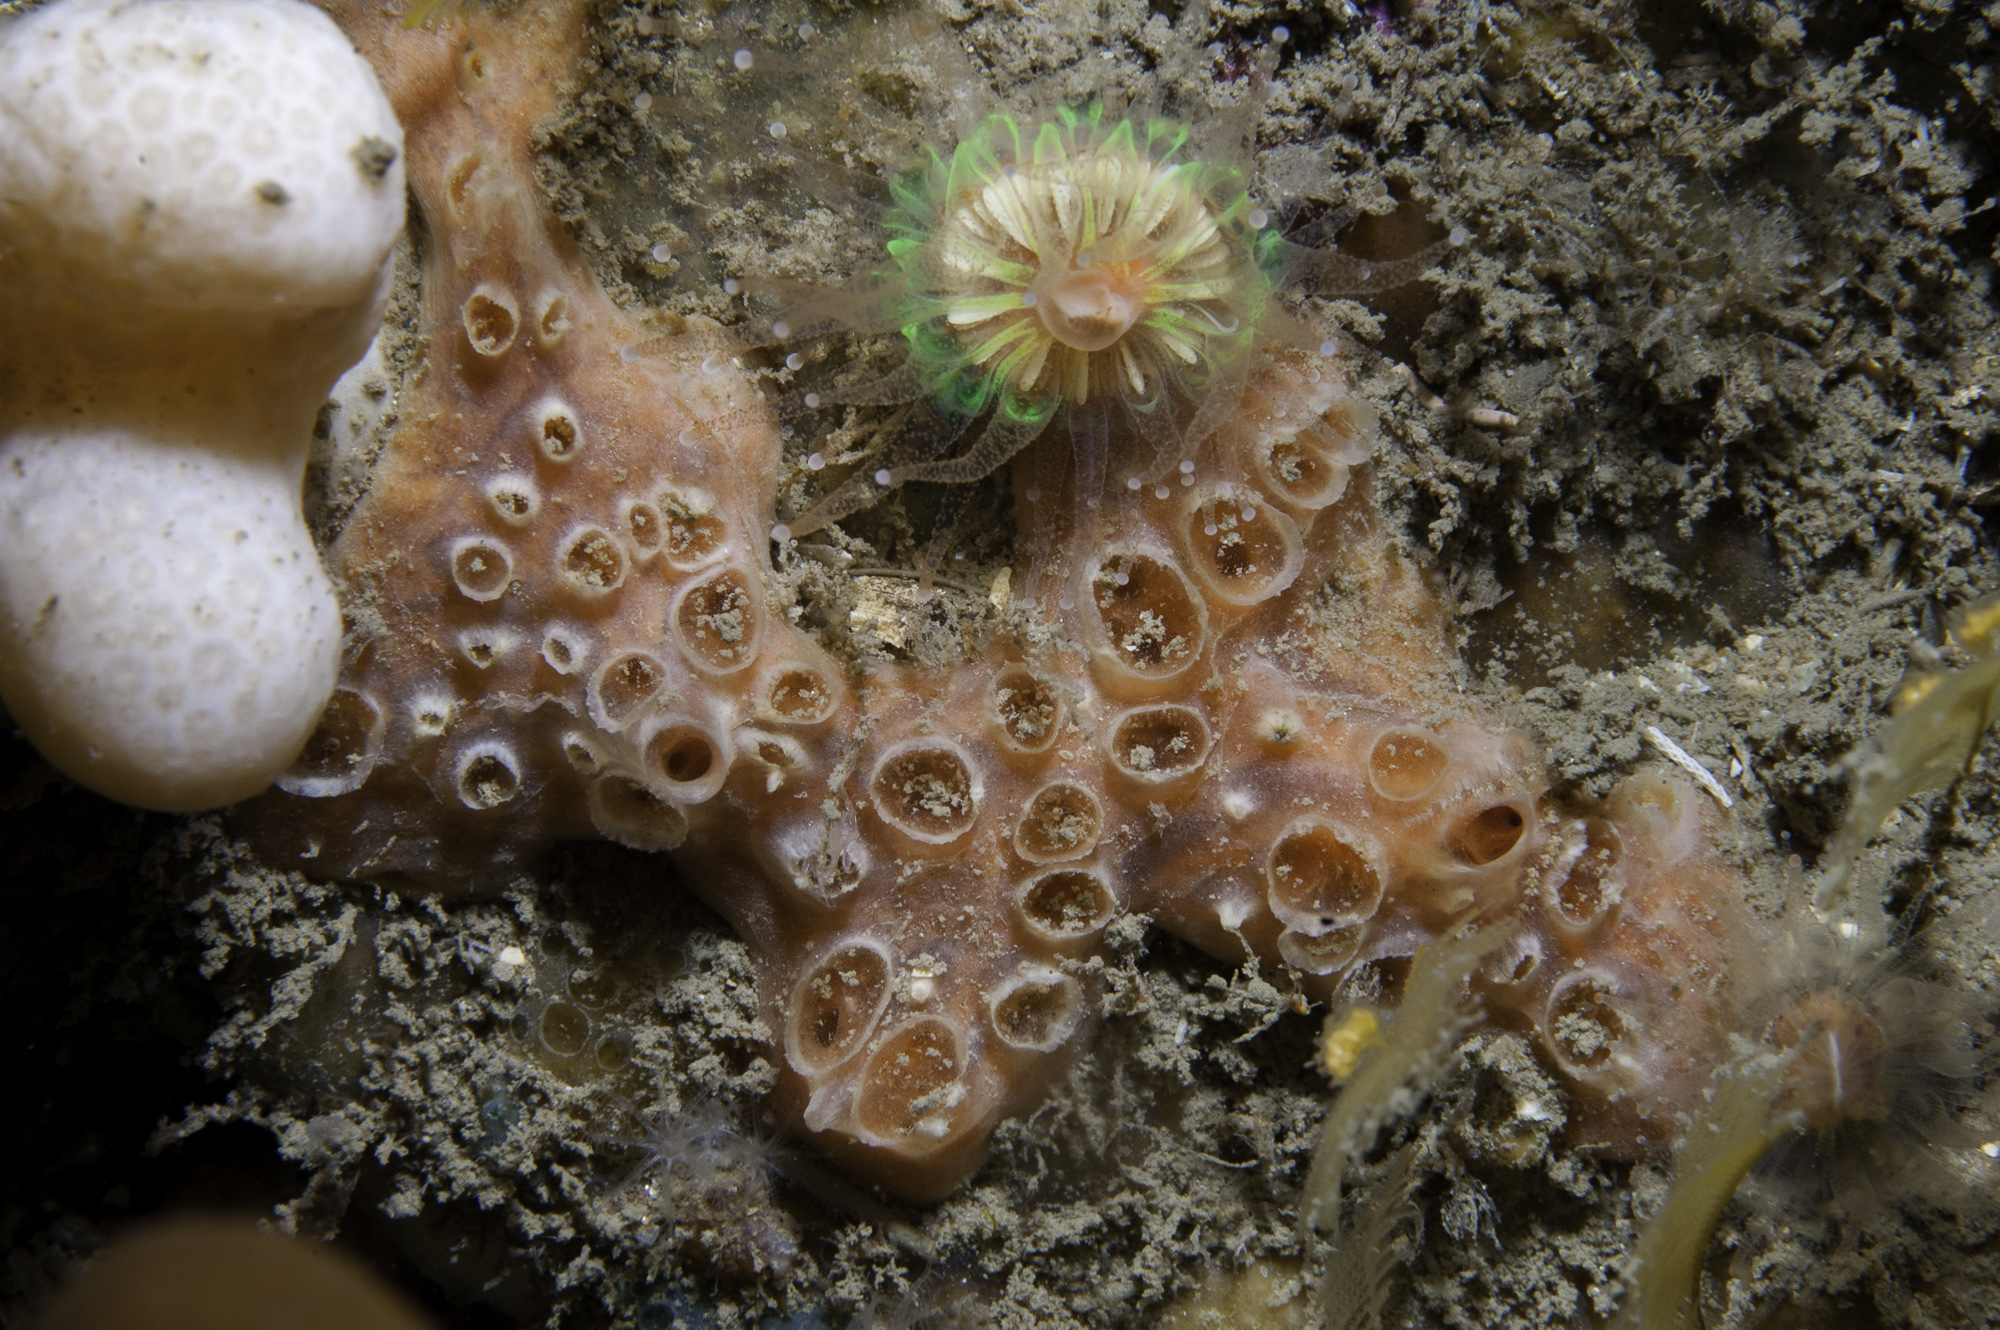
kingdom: Animalia
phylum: Porifera
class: Demospongiae
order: Poecilosclerida
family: Hymedesmiidae
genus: Hemimycale
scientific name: Hemimycale columella
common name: Crater sponge
